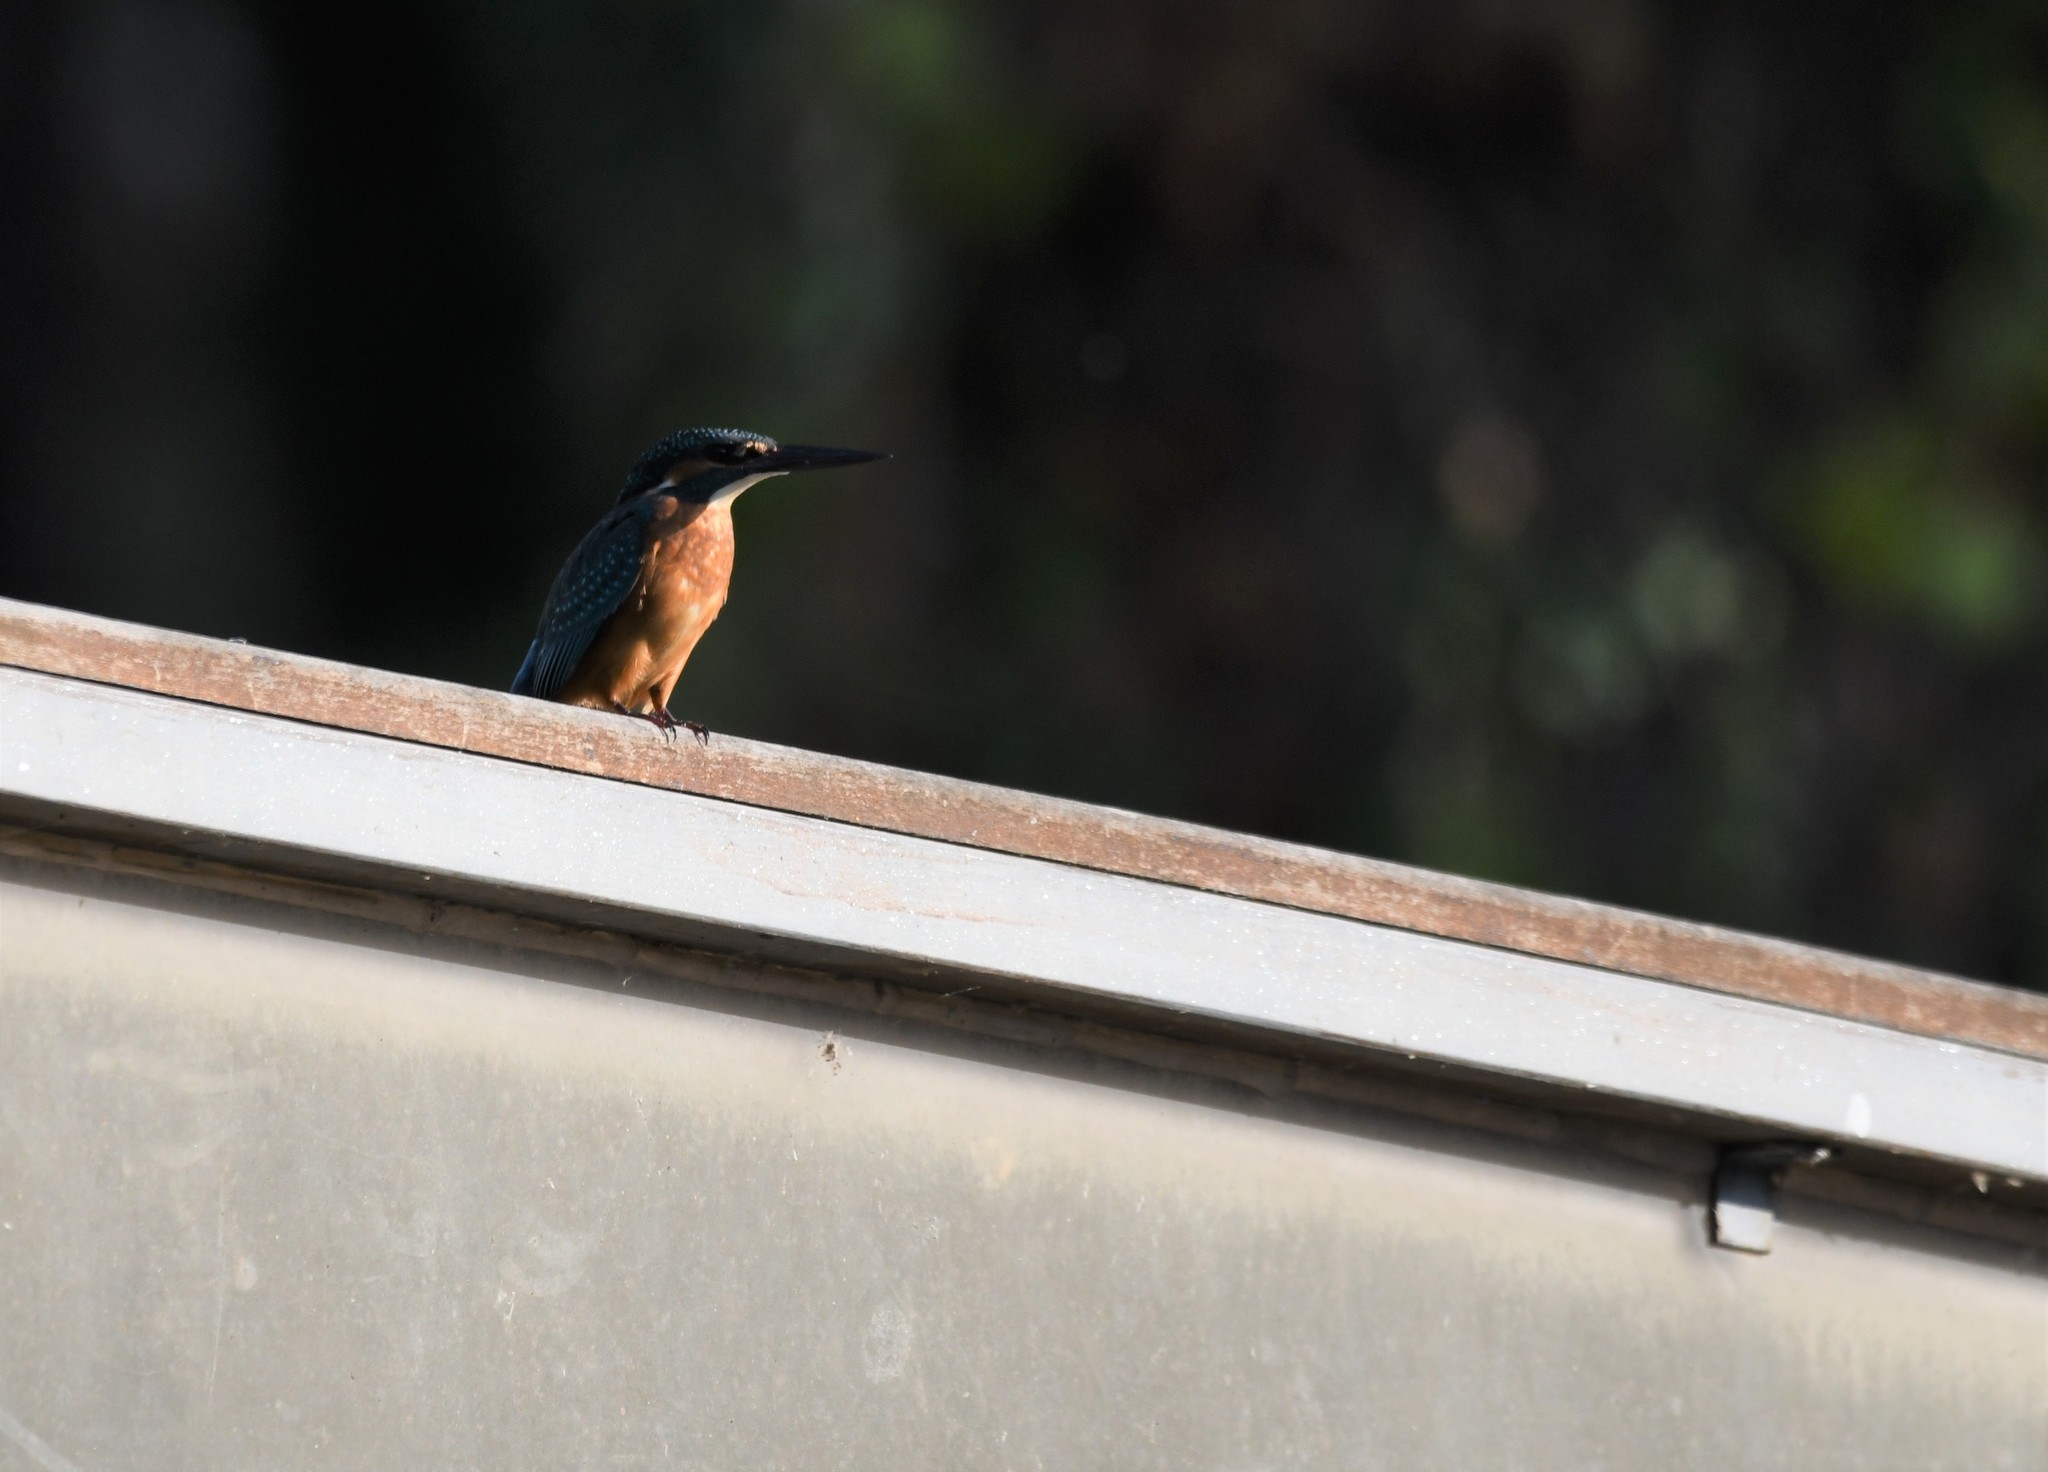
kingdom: Animalia
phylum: Chordata
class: Aves
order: Coraciiformes
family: Alcedinidae
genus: Alcedo
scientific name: Alcedo atthis
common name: Common kingfisher
